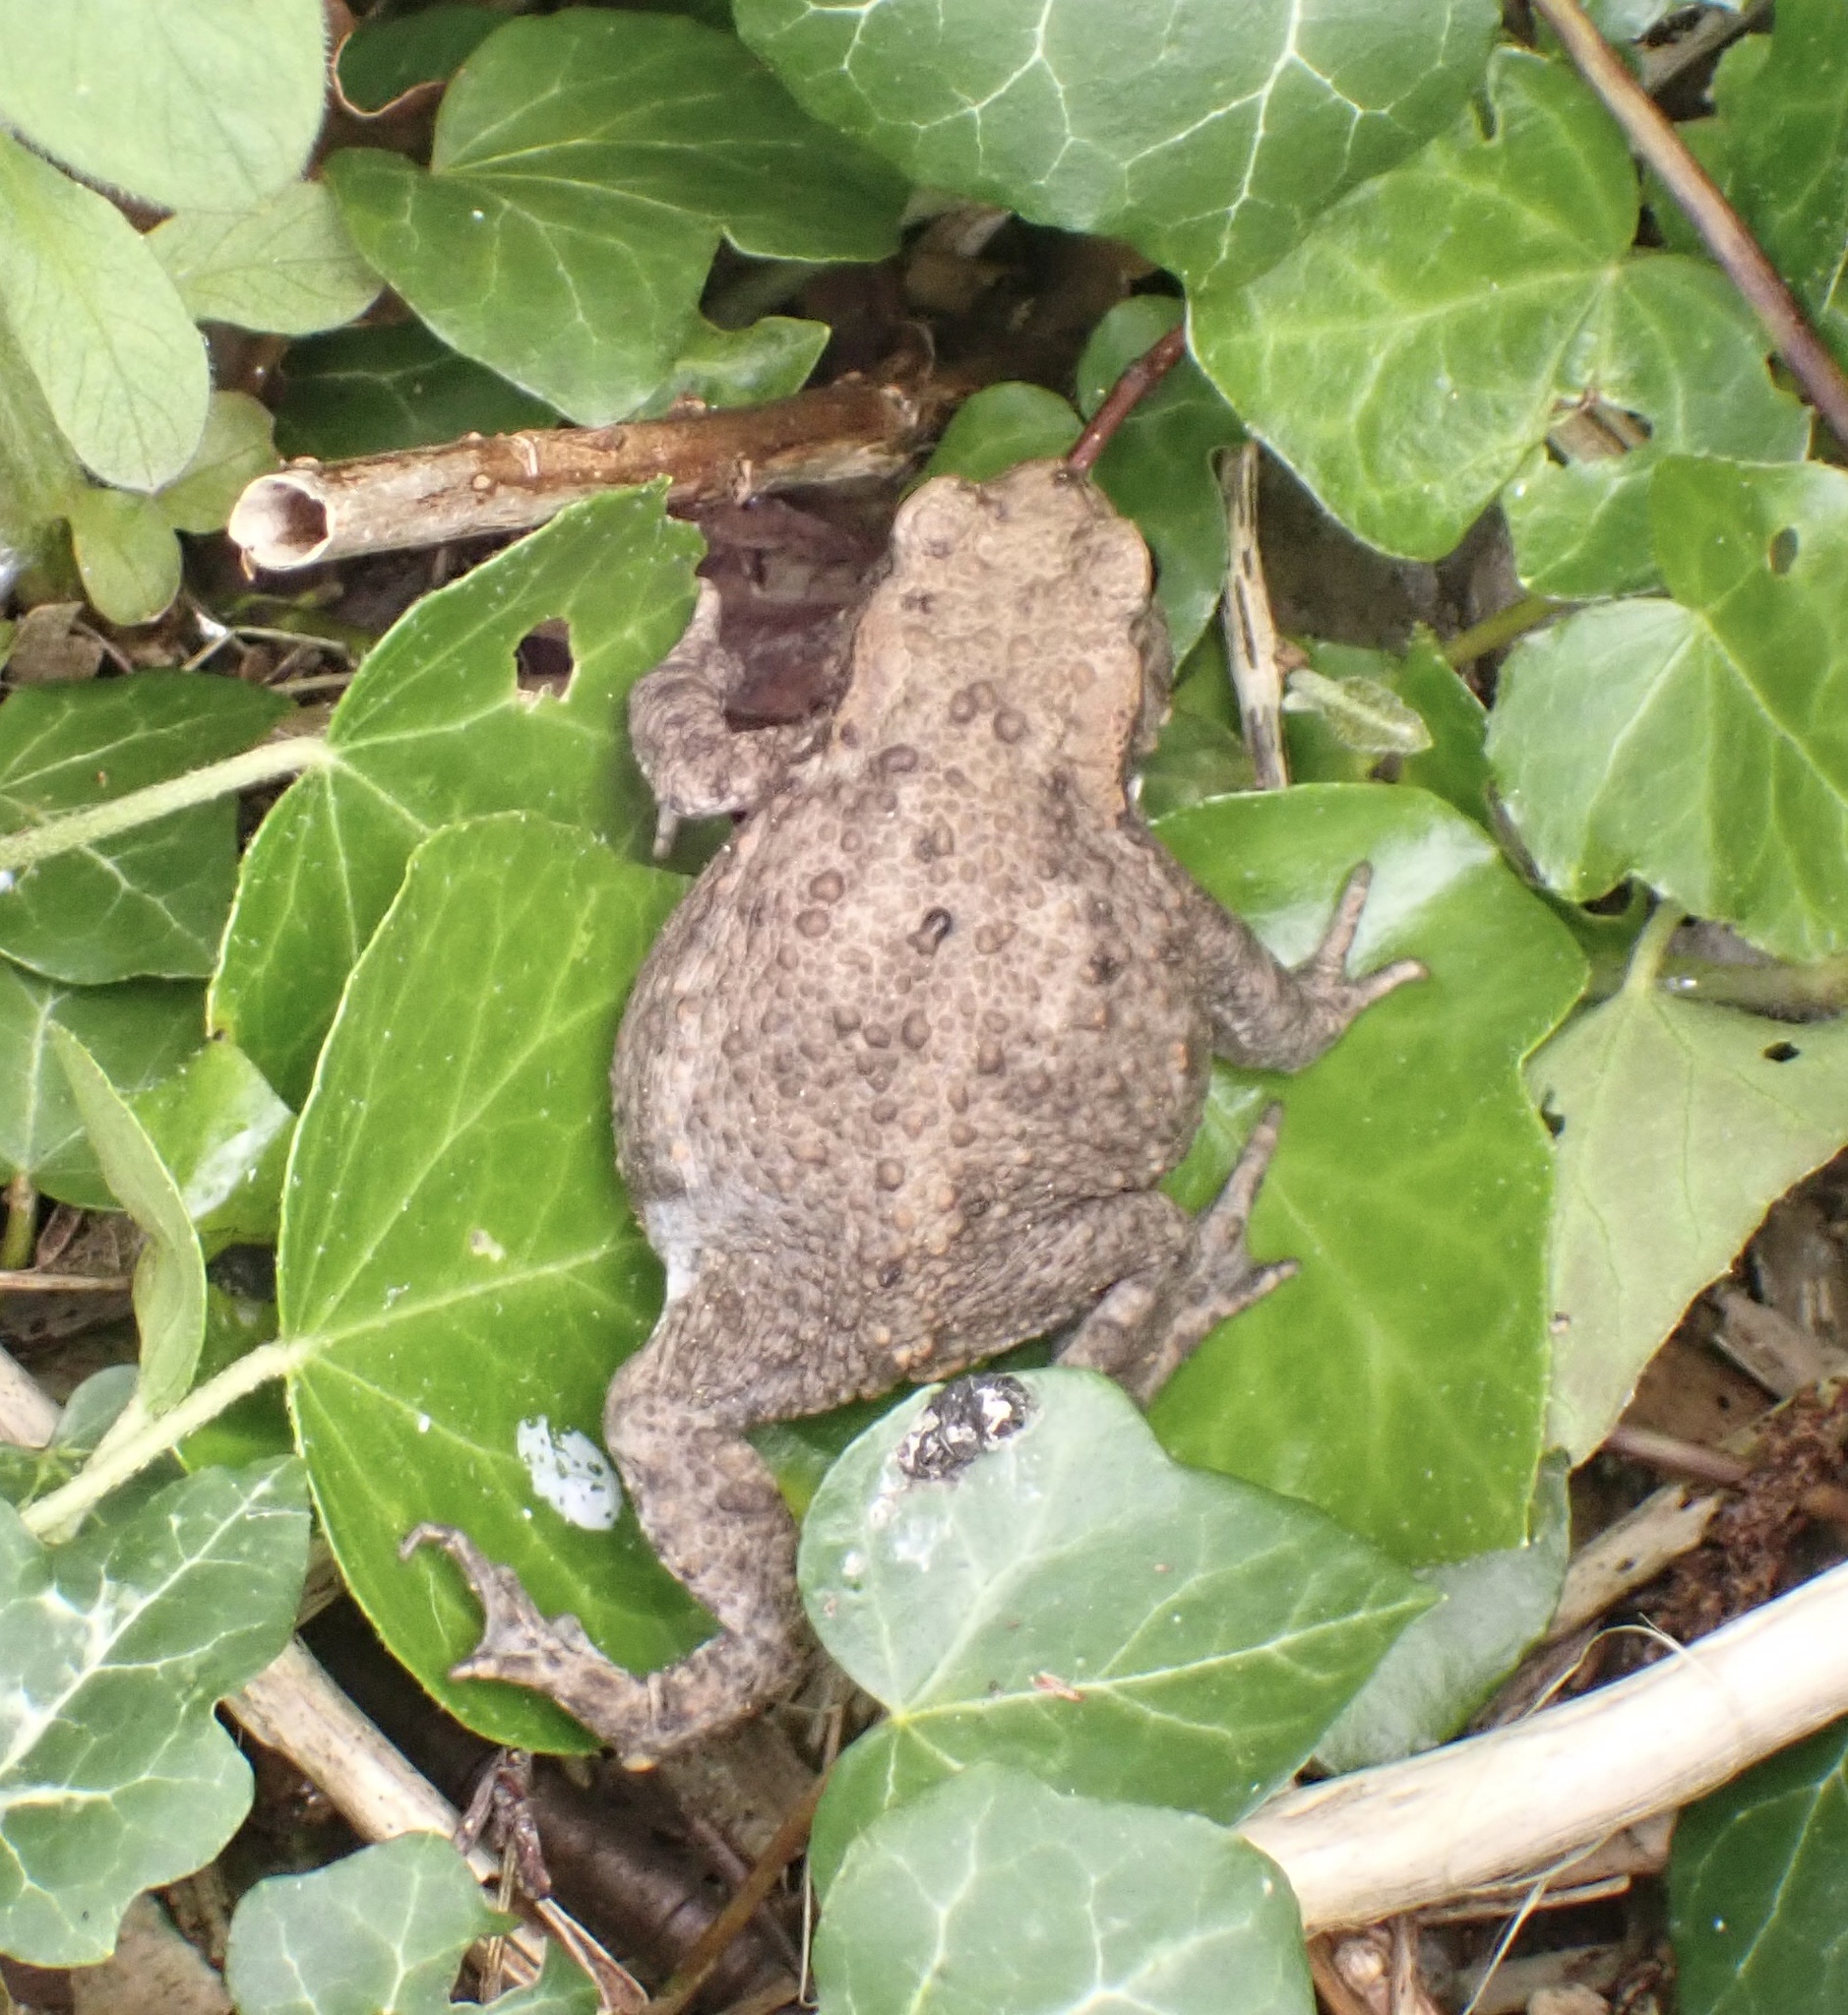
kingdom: Animalia
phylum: Chordata
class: Amphibia
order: Anura
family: Bufonidae
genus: Bufo
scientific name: Bufo bufo
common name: Common toad
